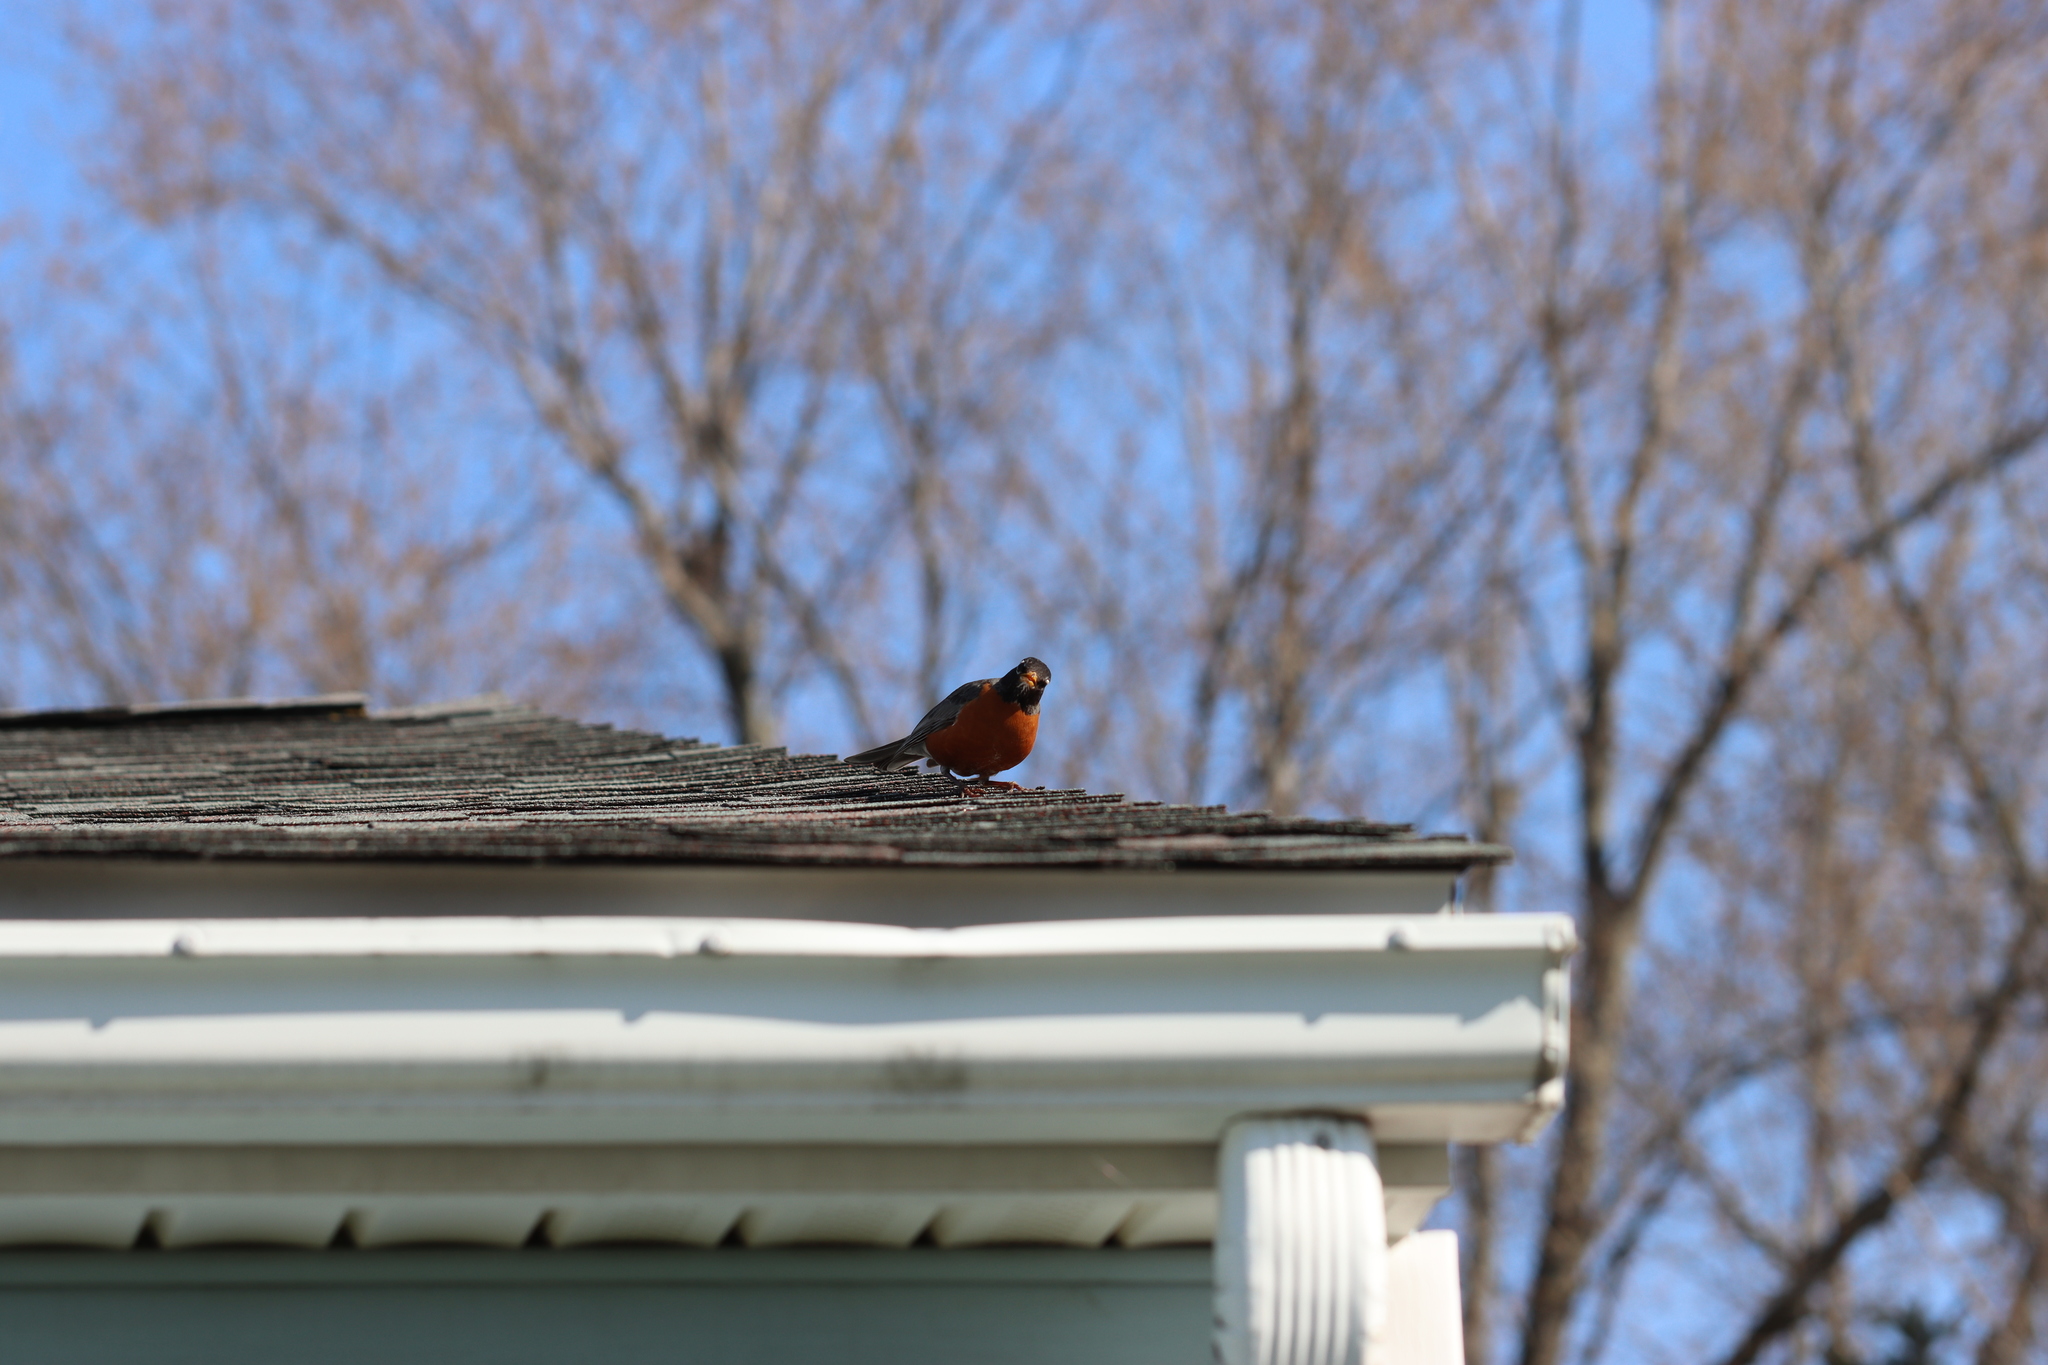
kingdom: Animalia
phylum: Chordata
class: Aves
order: Passeriformes
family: Turdidae
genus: Turdus
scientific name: Turdus migratorius
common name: American robin
